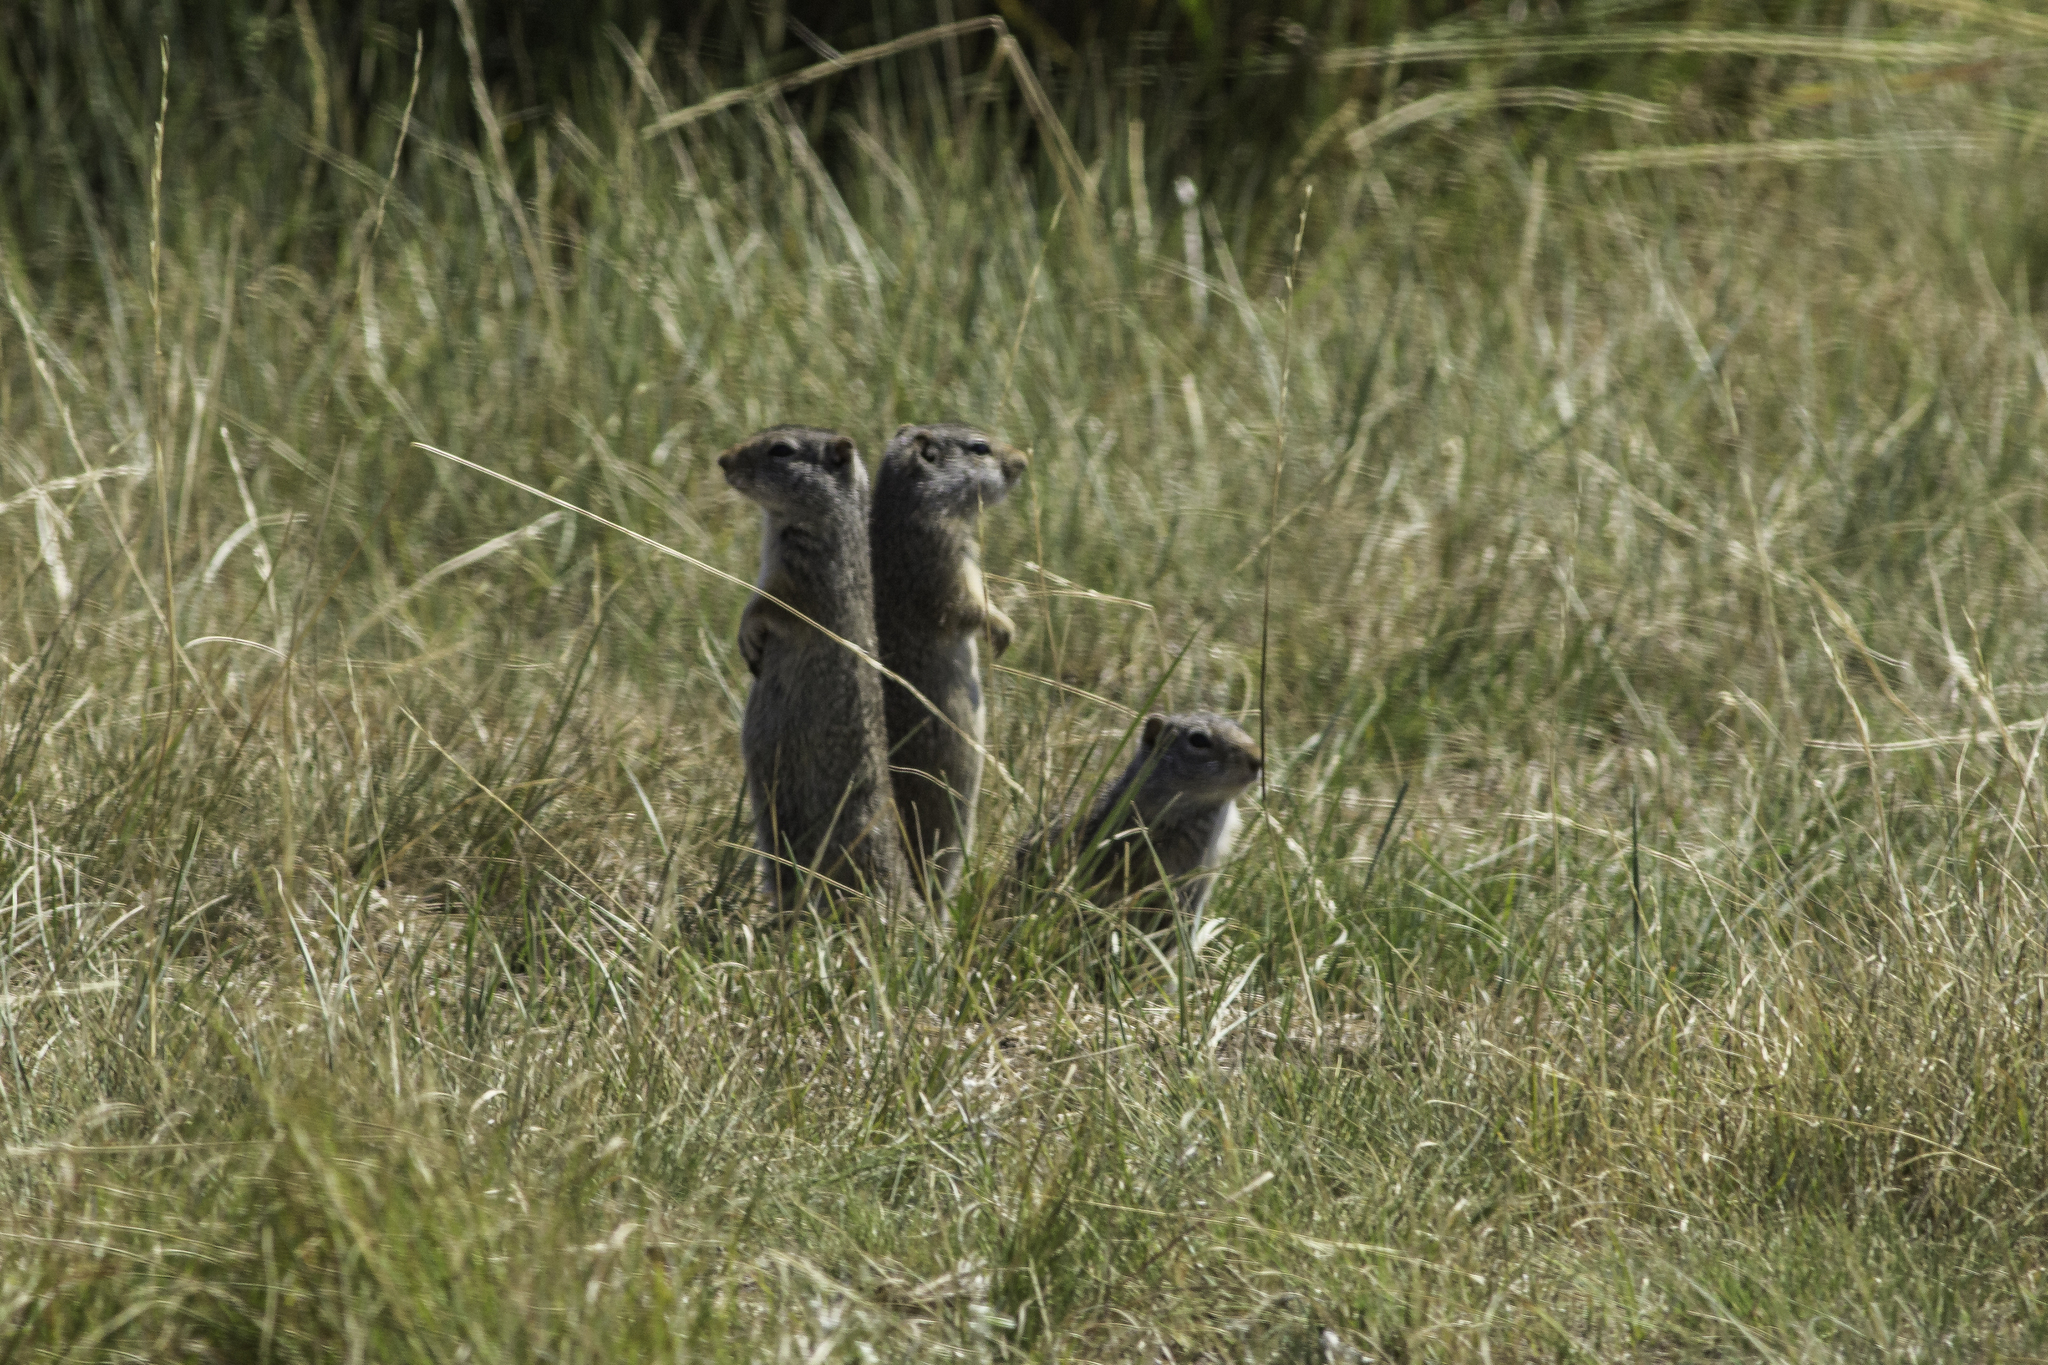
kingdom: Animalia
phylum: Chordata
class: Mammalia
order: Rodentia
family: Sciuridae
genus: Urocitellus
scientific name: Urocitellus armatus
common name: Uinta ground squirrel
